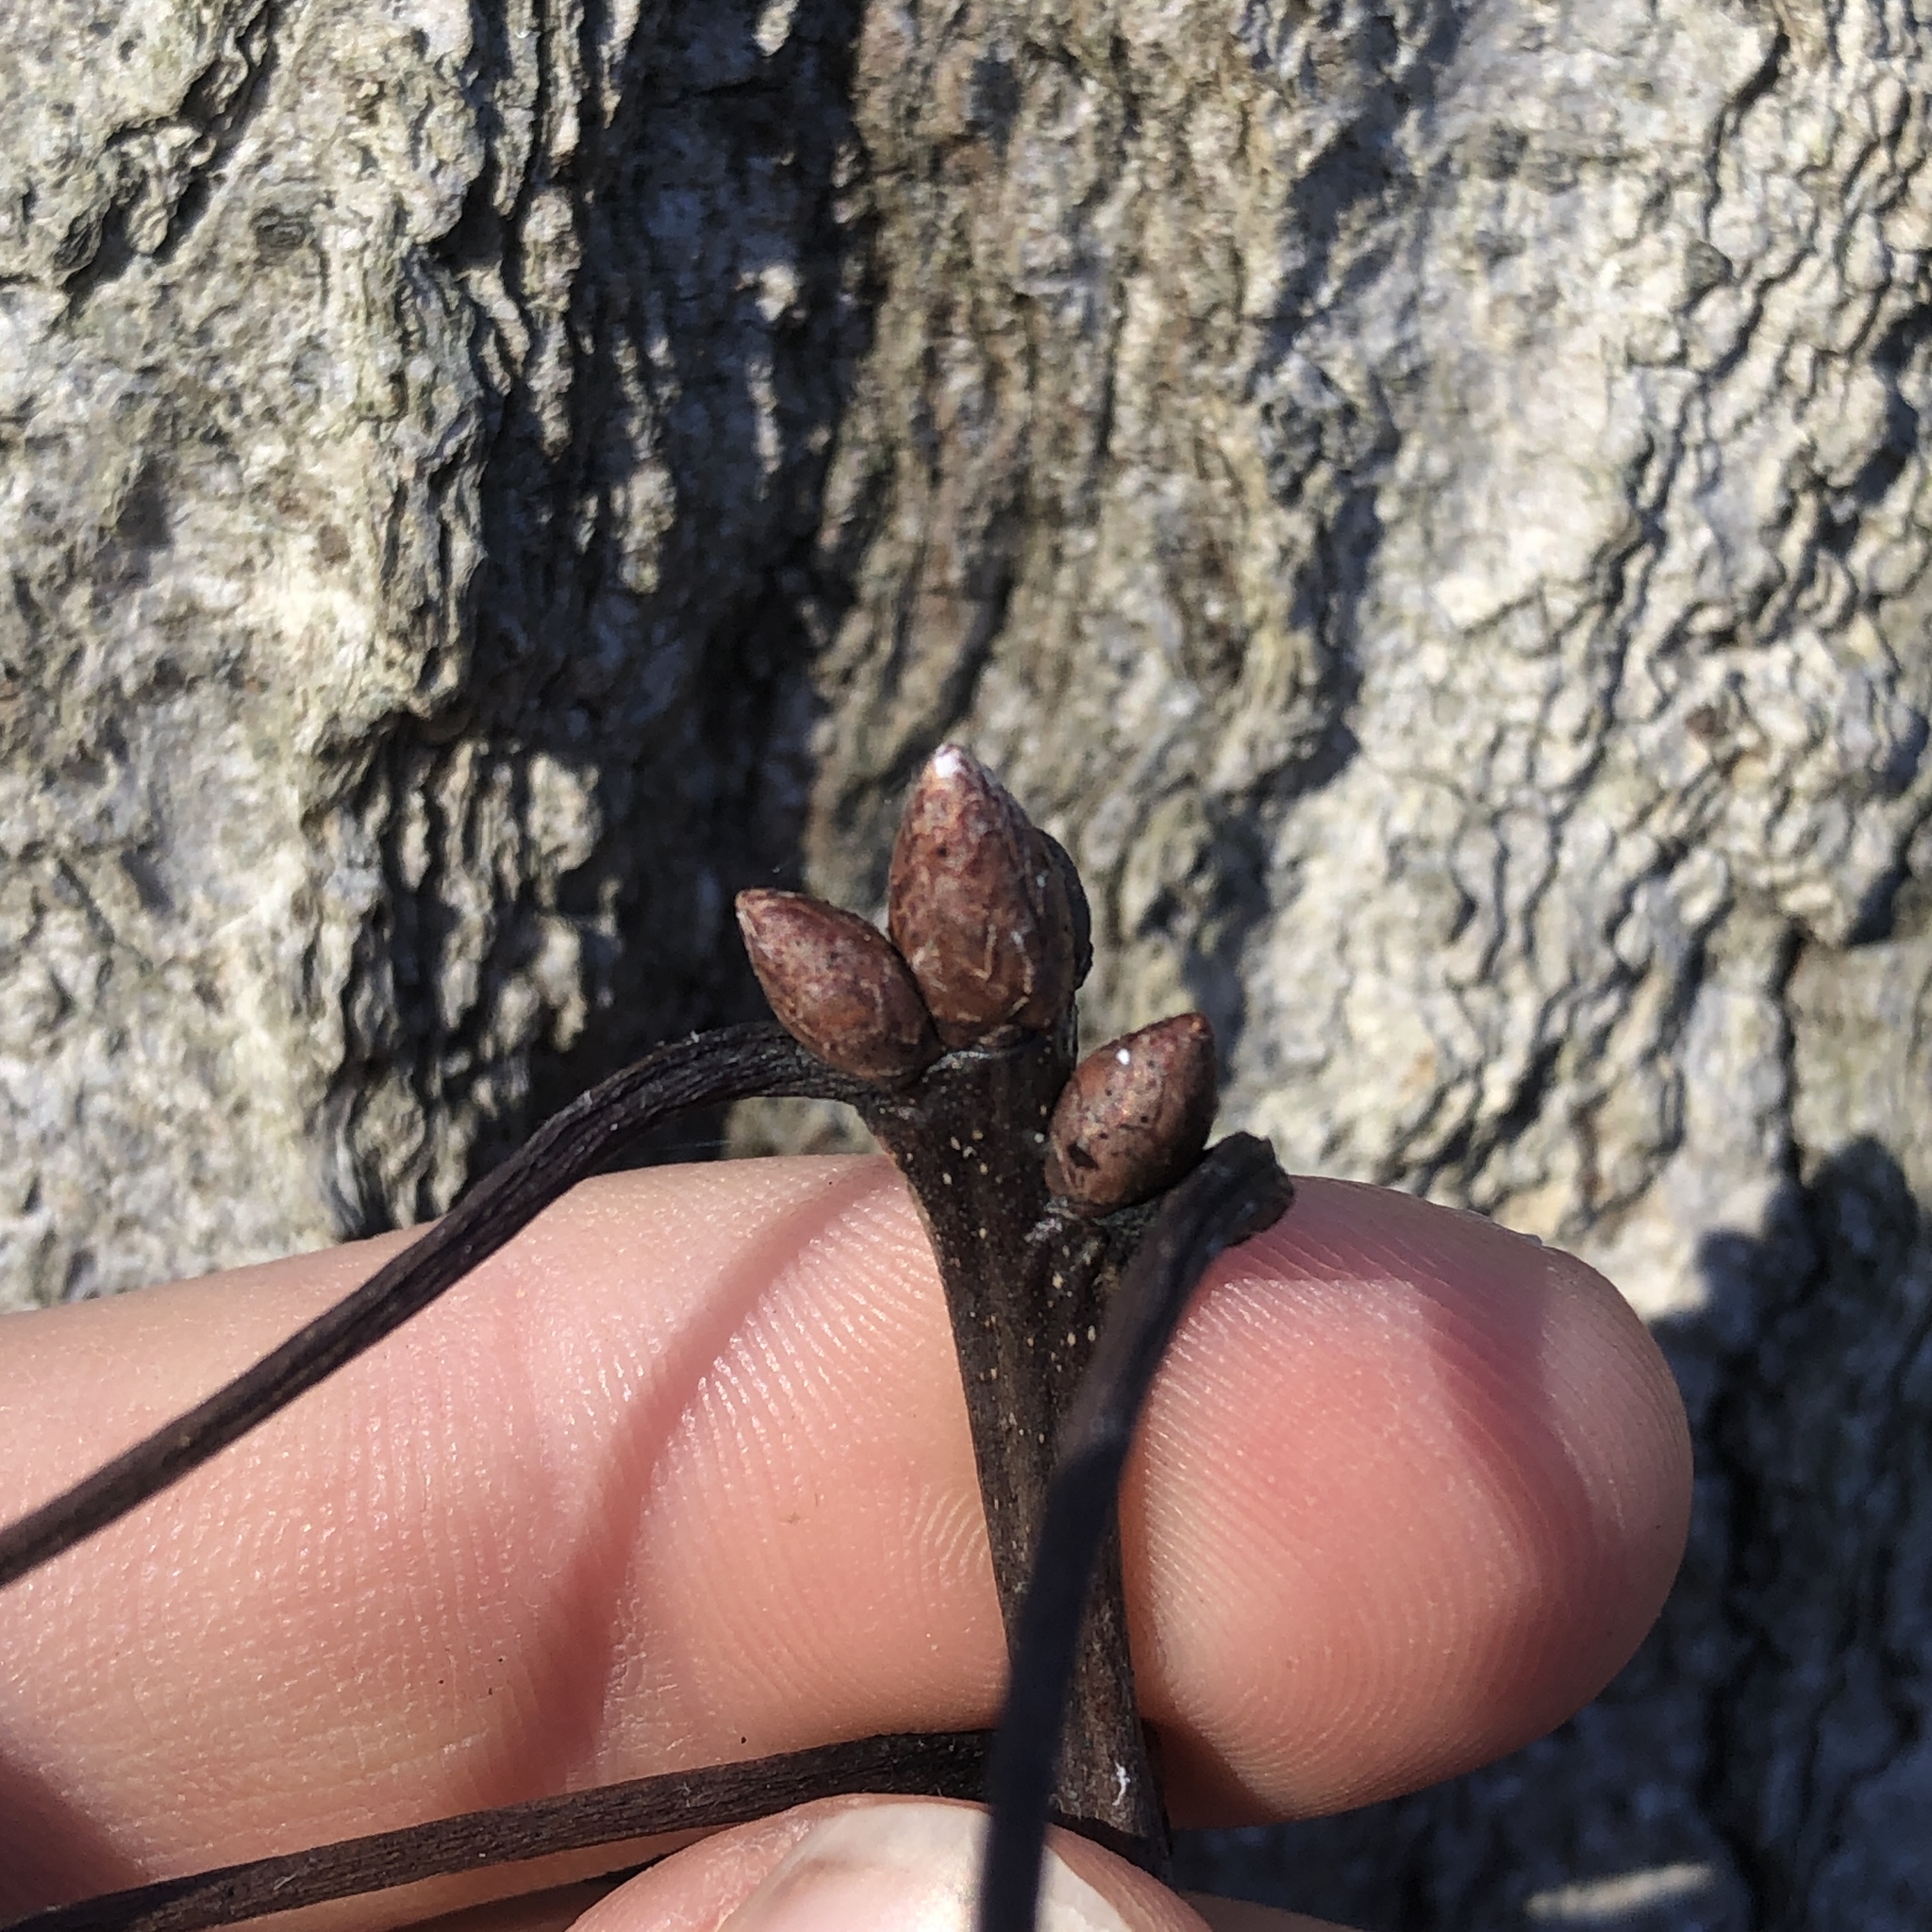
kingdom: Plantae
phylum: Tracheophyta
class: Magnoliopsida
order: Fagales
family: Fagaceae
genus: Quercus
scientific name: Quercus rubra
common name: Red oak
